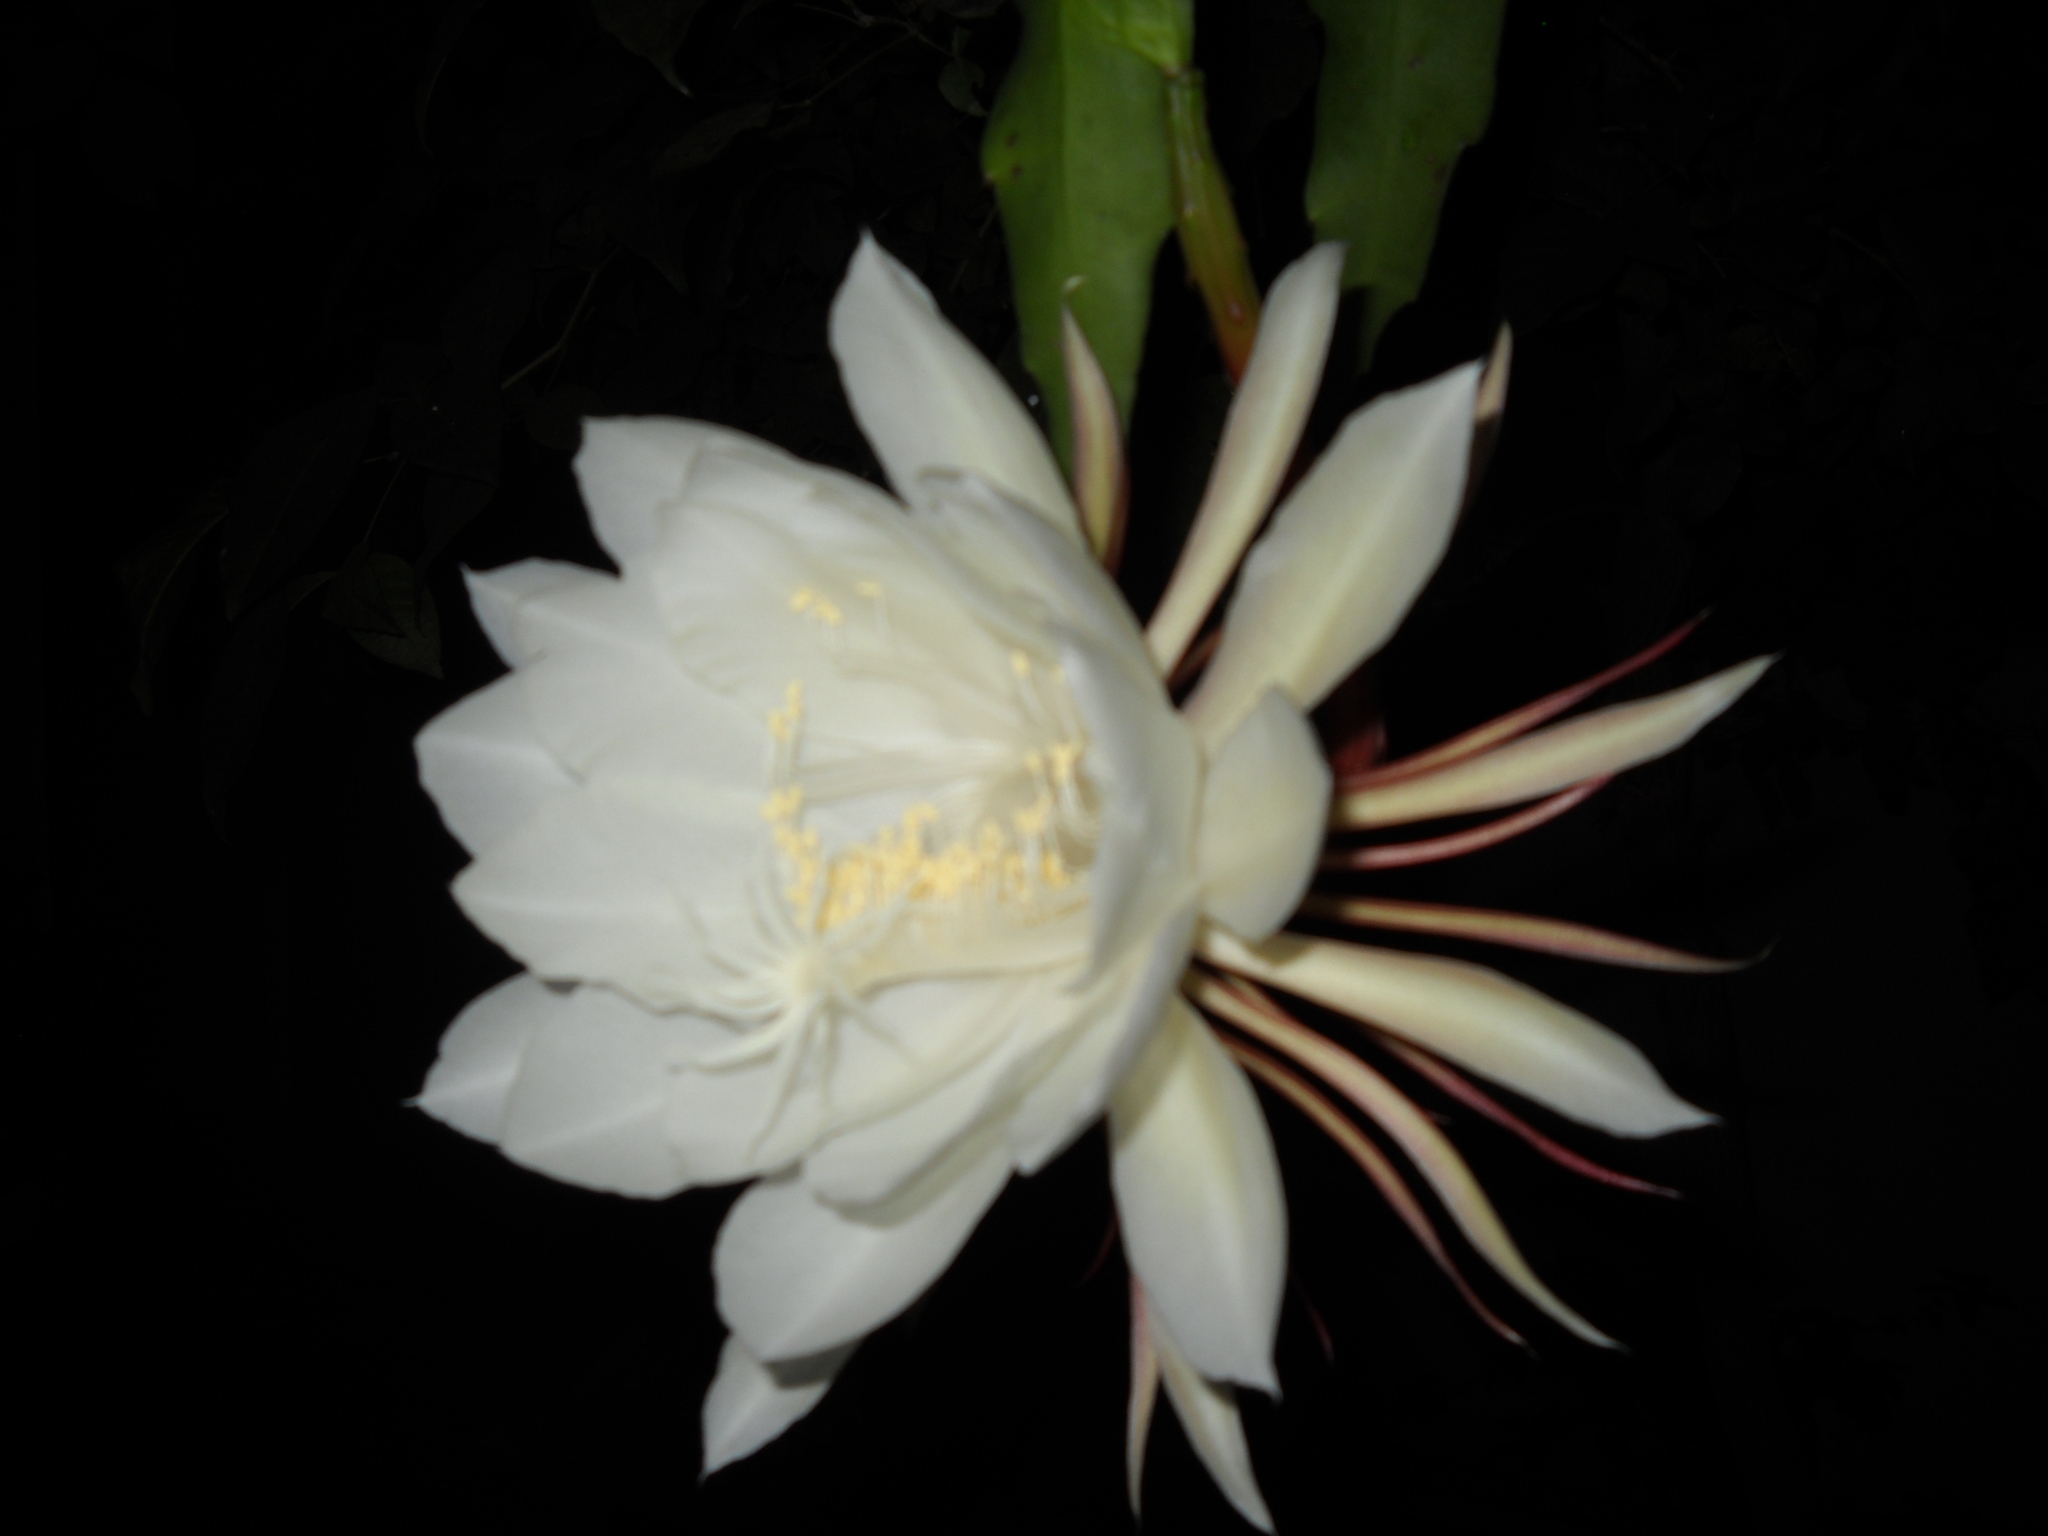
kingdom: Plantae
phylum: Tracheophyta
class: Magnoliopsida
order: Caryophyllales
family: Cactaceae
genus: Epiphyllum
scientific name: Epiphyllum oxypetalum
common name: Dutchman's pipe cactus
